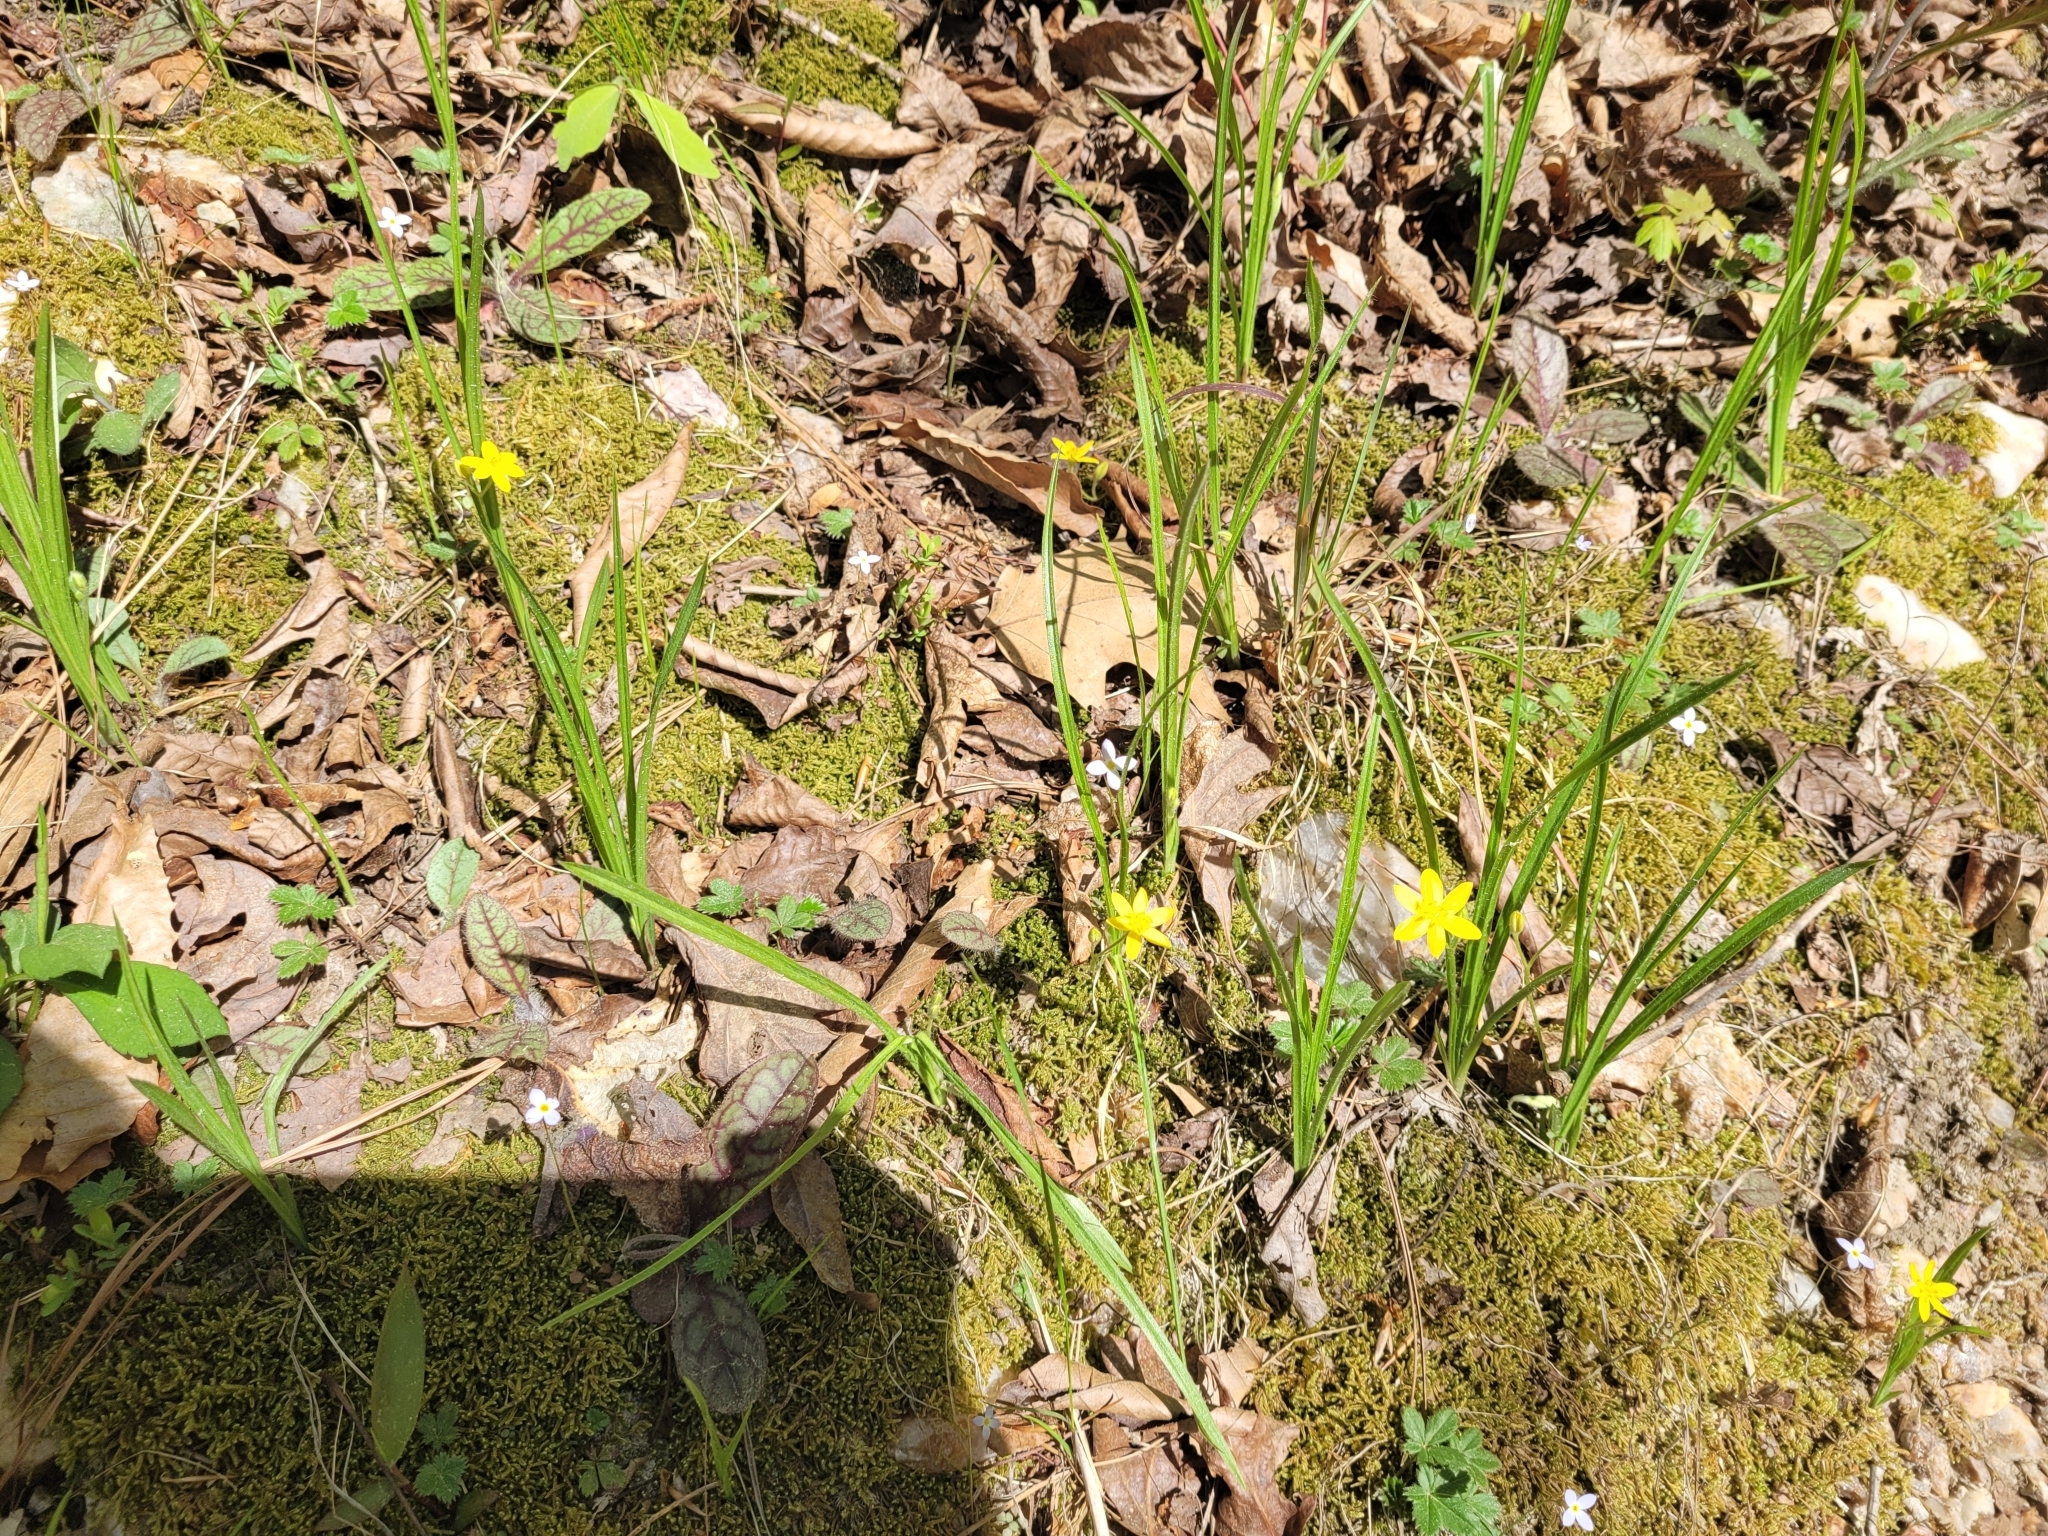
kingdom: Plantae
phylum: Tracheophyta
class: Liliopsida
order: Asparagales
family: Hypoxidaceae
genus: Hypoxis
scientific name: Hypoxis hirsuta
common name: Common goldstar
